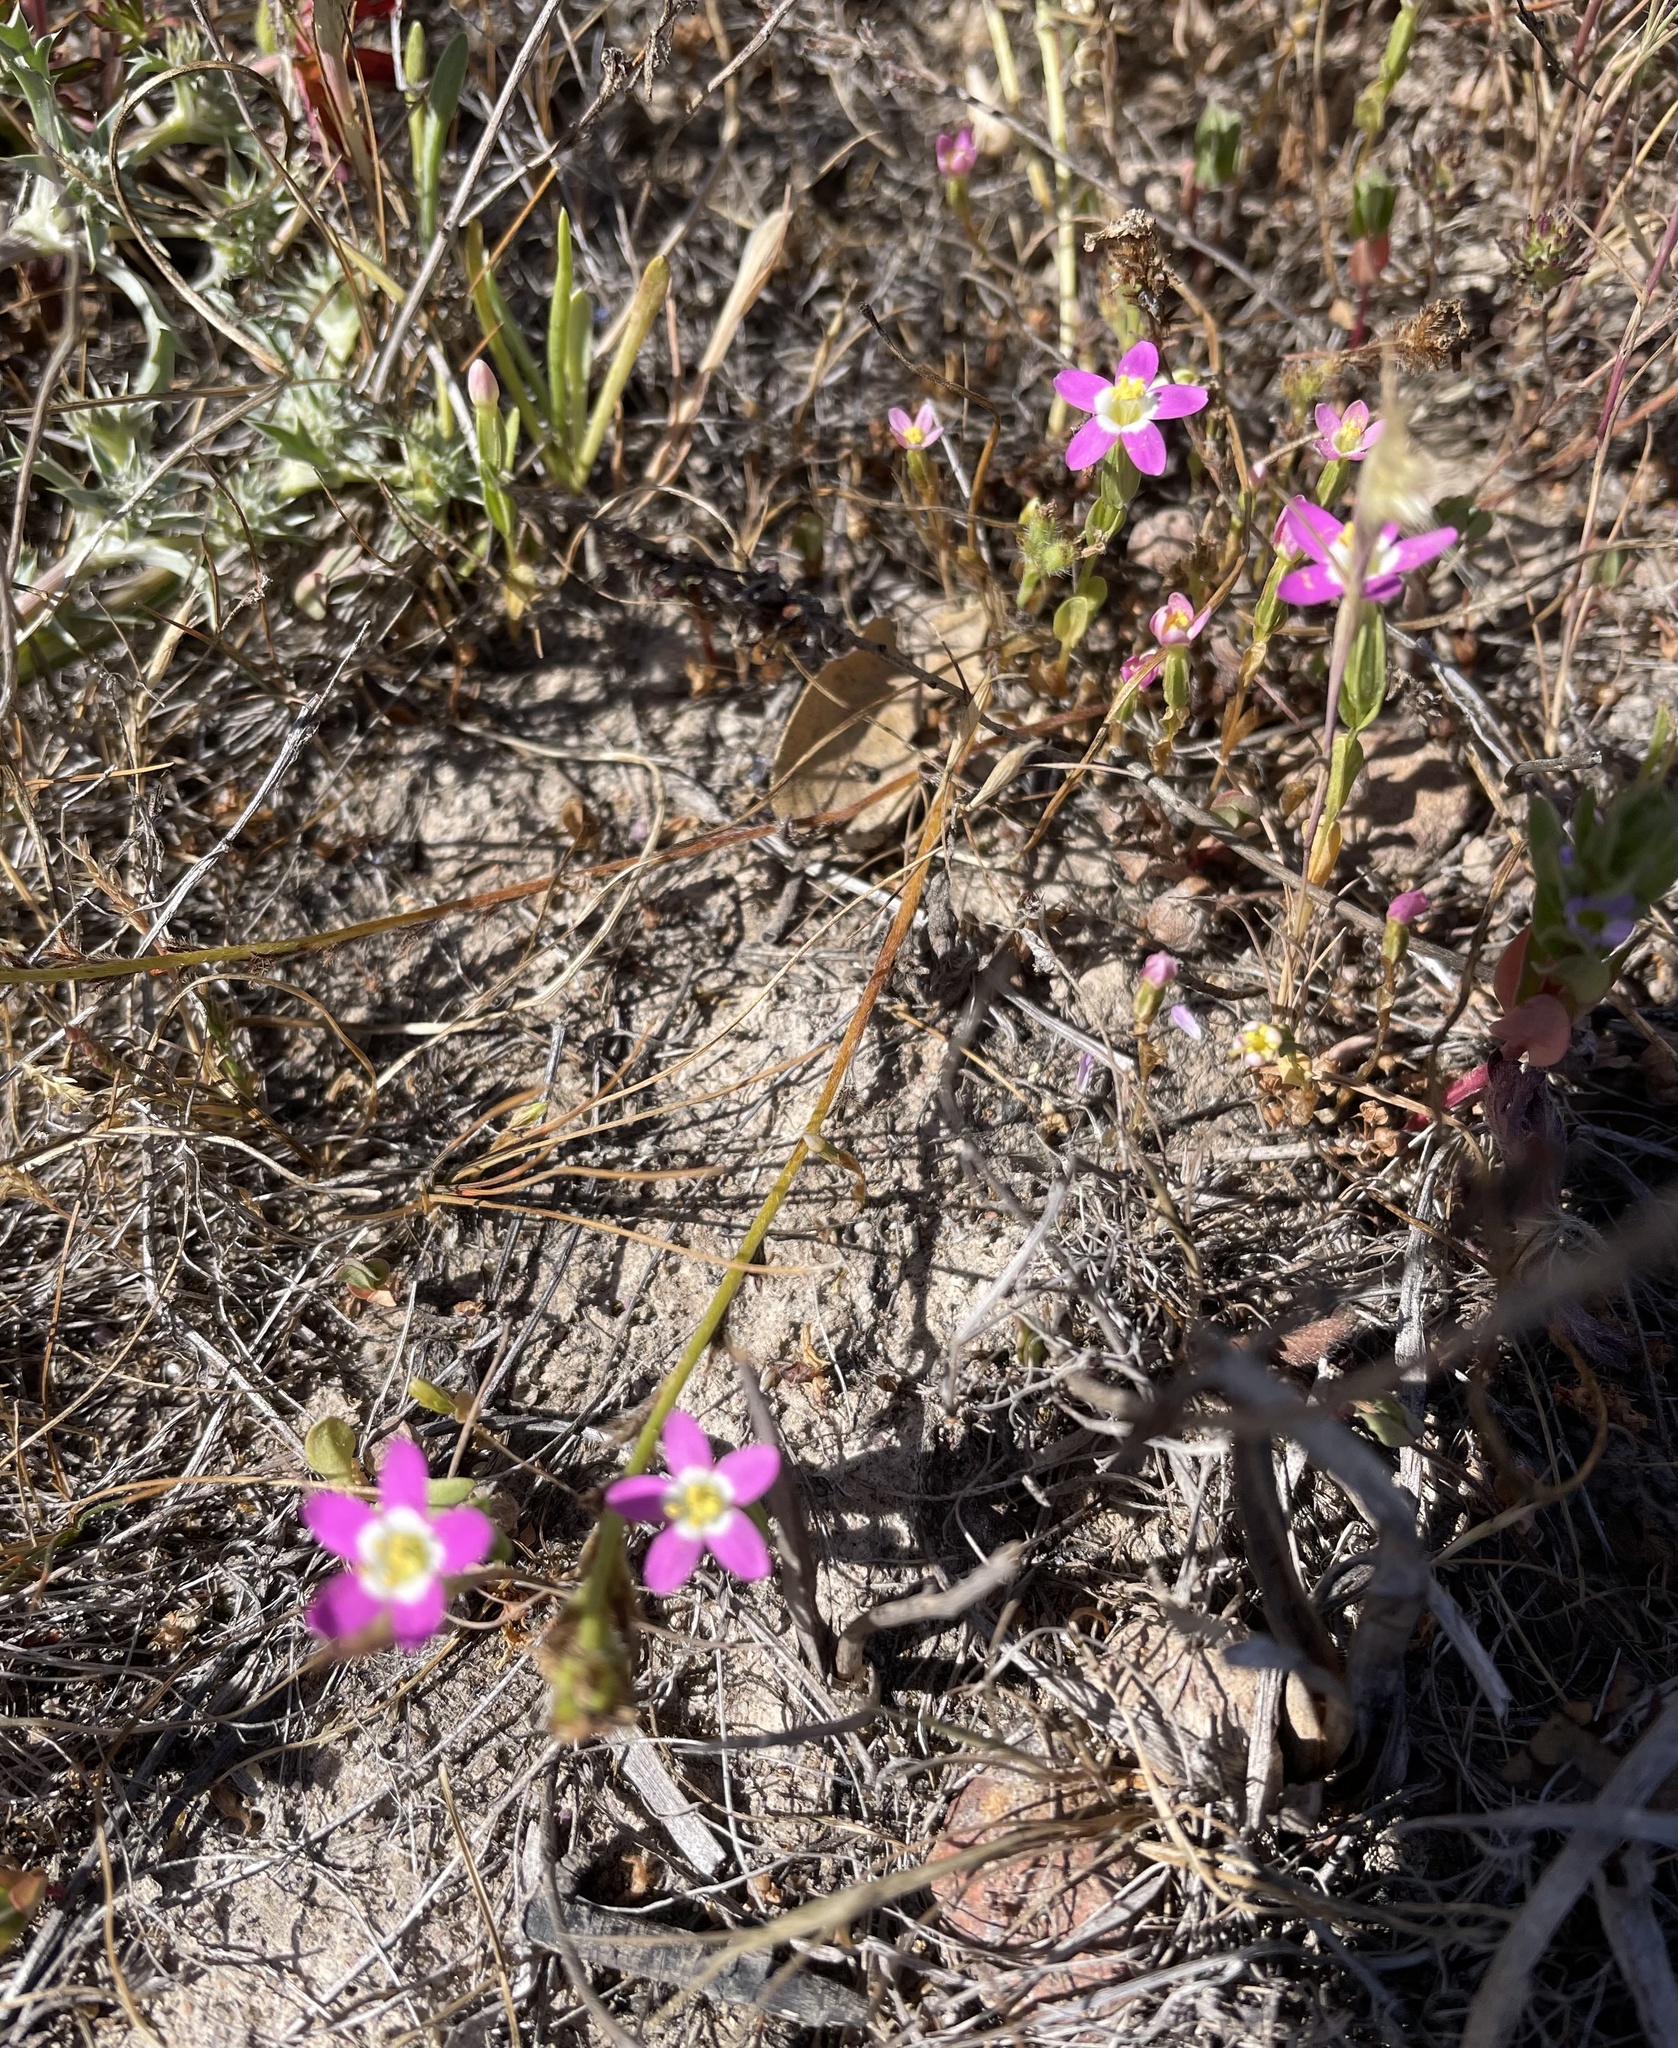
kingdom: Plantae
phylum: Tracheophyta
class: Magnoliopsida
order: Gentianales
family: Gentianaceae
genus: Zeltnera
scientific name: Zeltnera davyi
